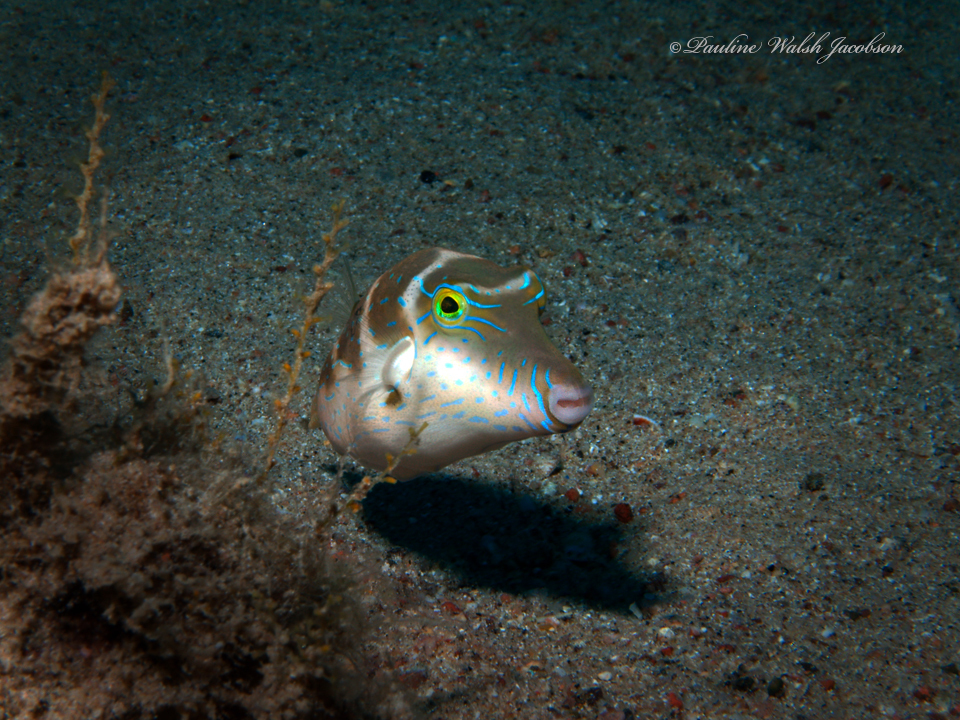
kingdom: Animalia
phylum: Chordata
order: Tetraodontiformes
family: Tetraodontidae
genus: Canthigaster
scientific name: Canthigaster cyanospilota
